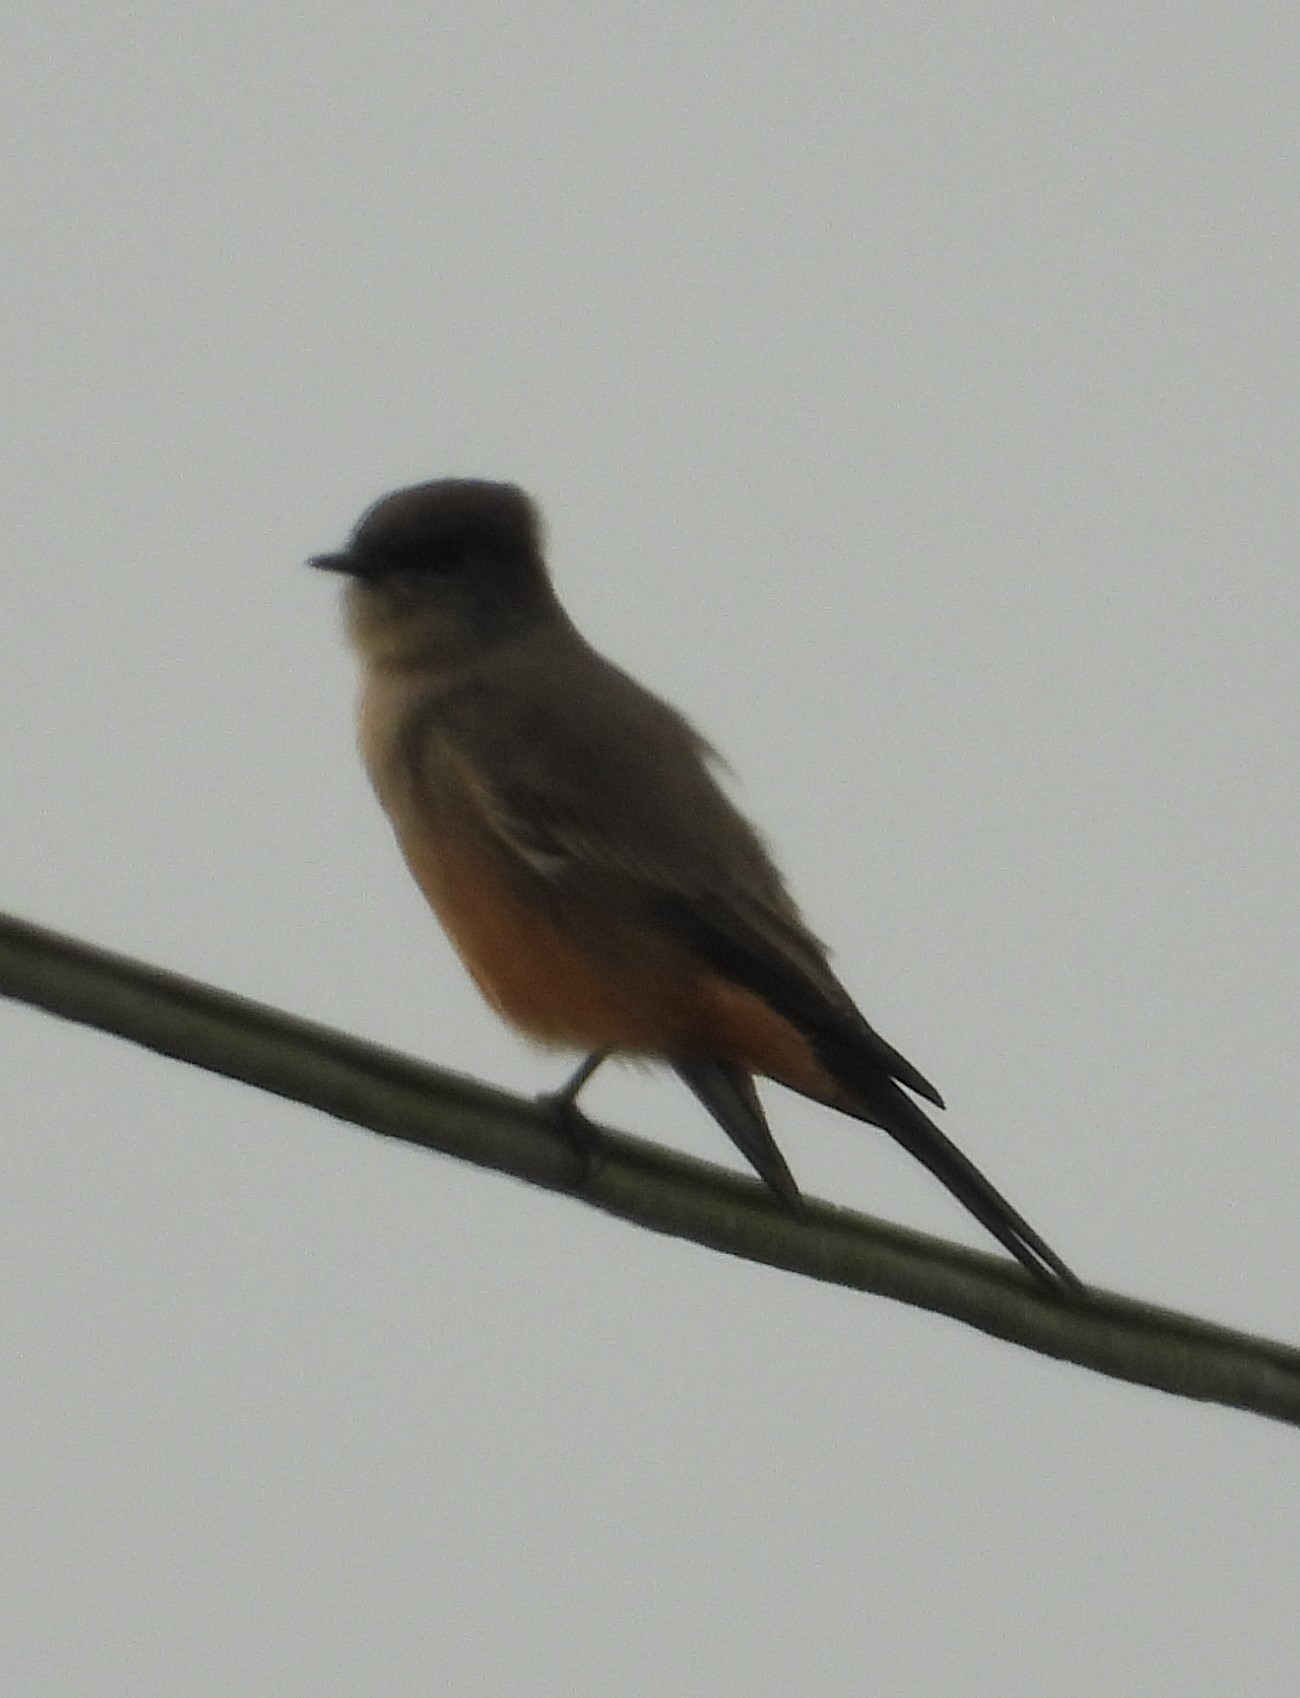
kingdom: Animalia
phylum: Chordata
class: Aves
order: Passeriformes
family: Tyrannidae
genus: Sayornis
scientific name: Sayornis saya
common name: Say's phoebe
